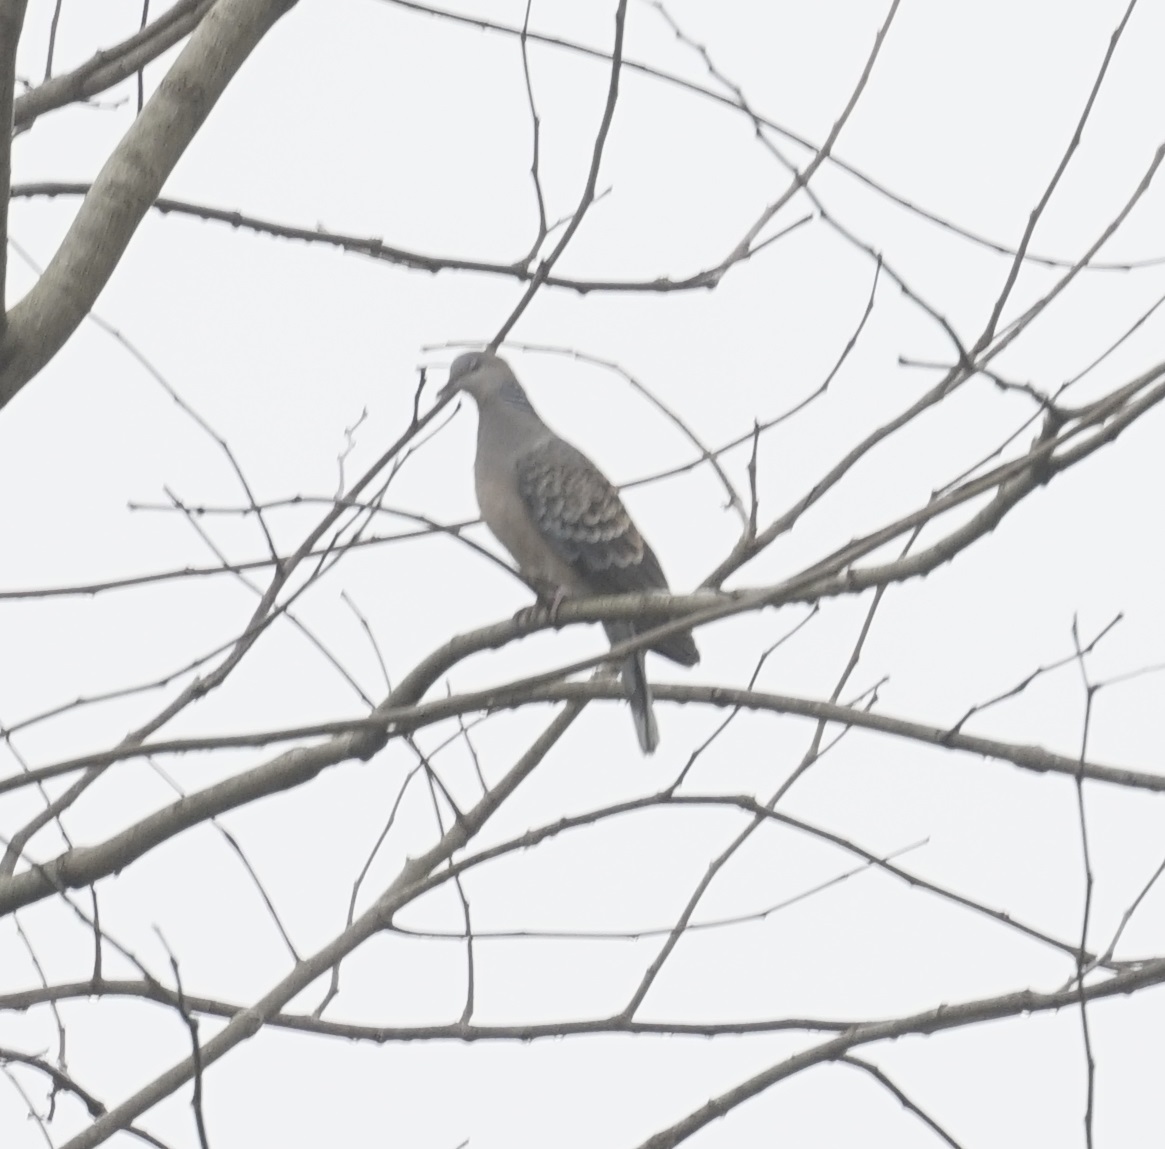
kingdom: Animalia
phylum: Chordata
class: Aves
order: Columbiformes
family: Columbidae
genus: Streptopelia
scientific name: Streptopelia orientalis
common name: Oriental turtle dove
